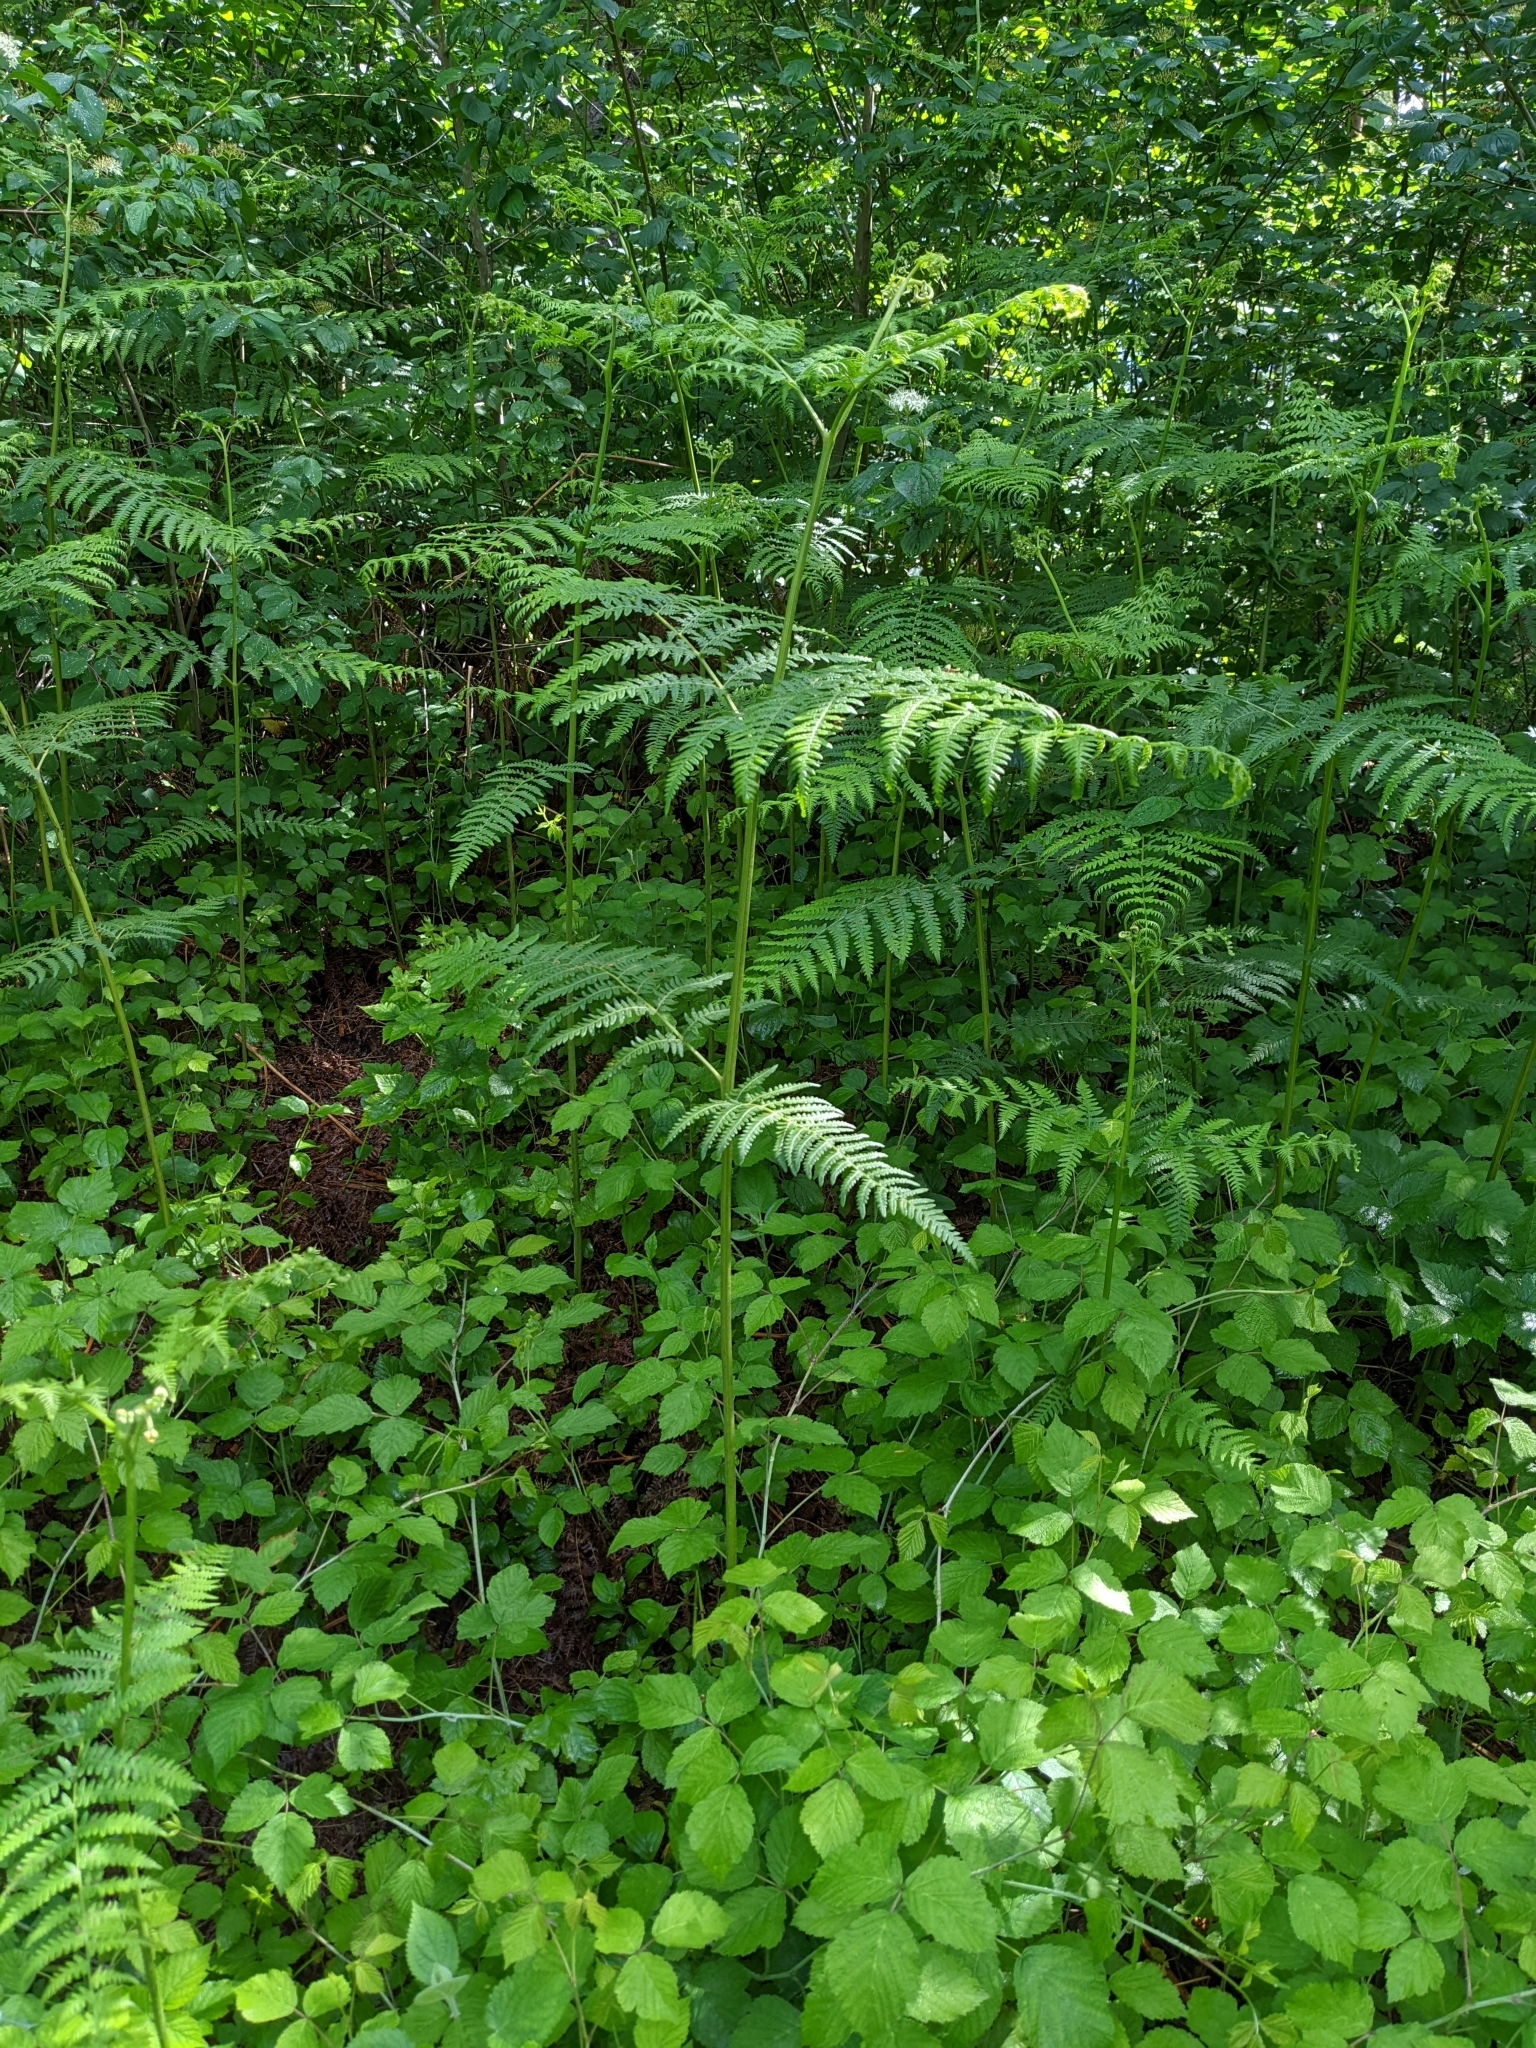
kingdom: Plantae
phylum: Tracheophyta
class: Polypodiopsida
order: Polypodiales
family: Dennstaedtiaceae
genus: Pteridium
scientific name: Pteridium aquilinum
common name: Bracken
